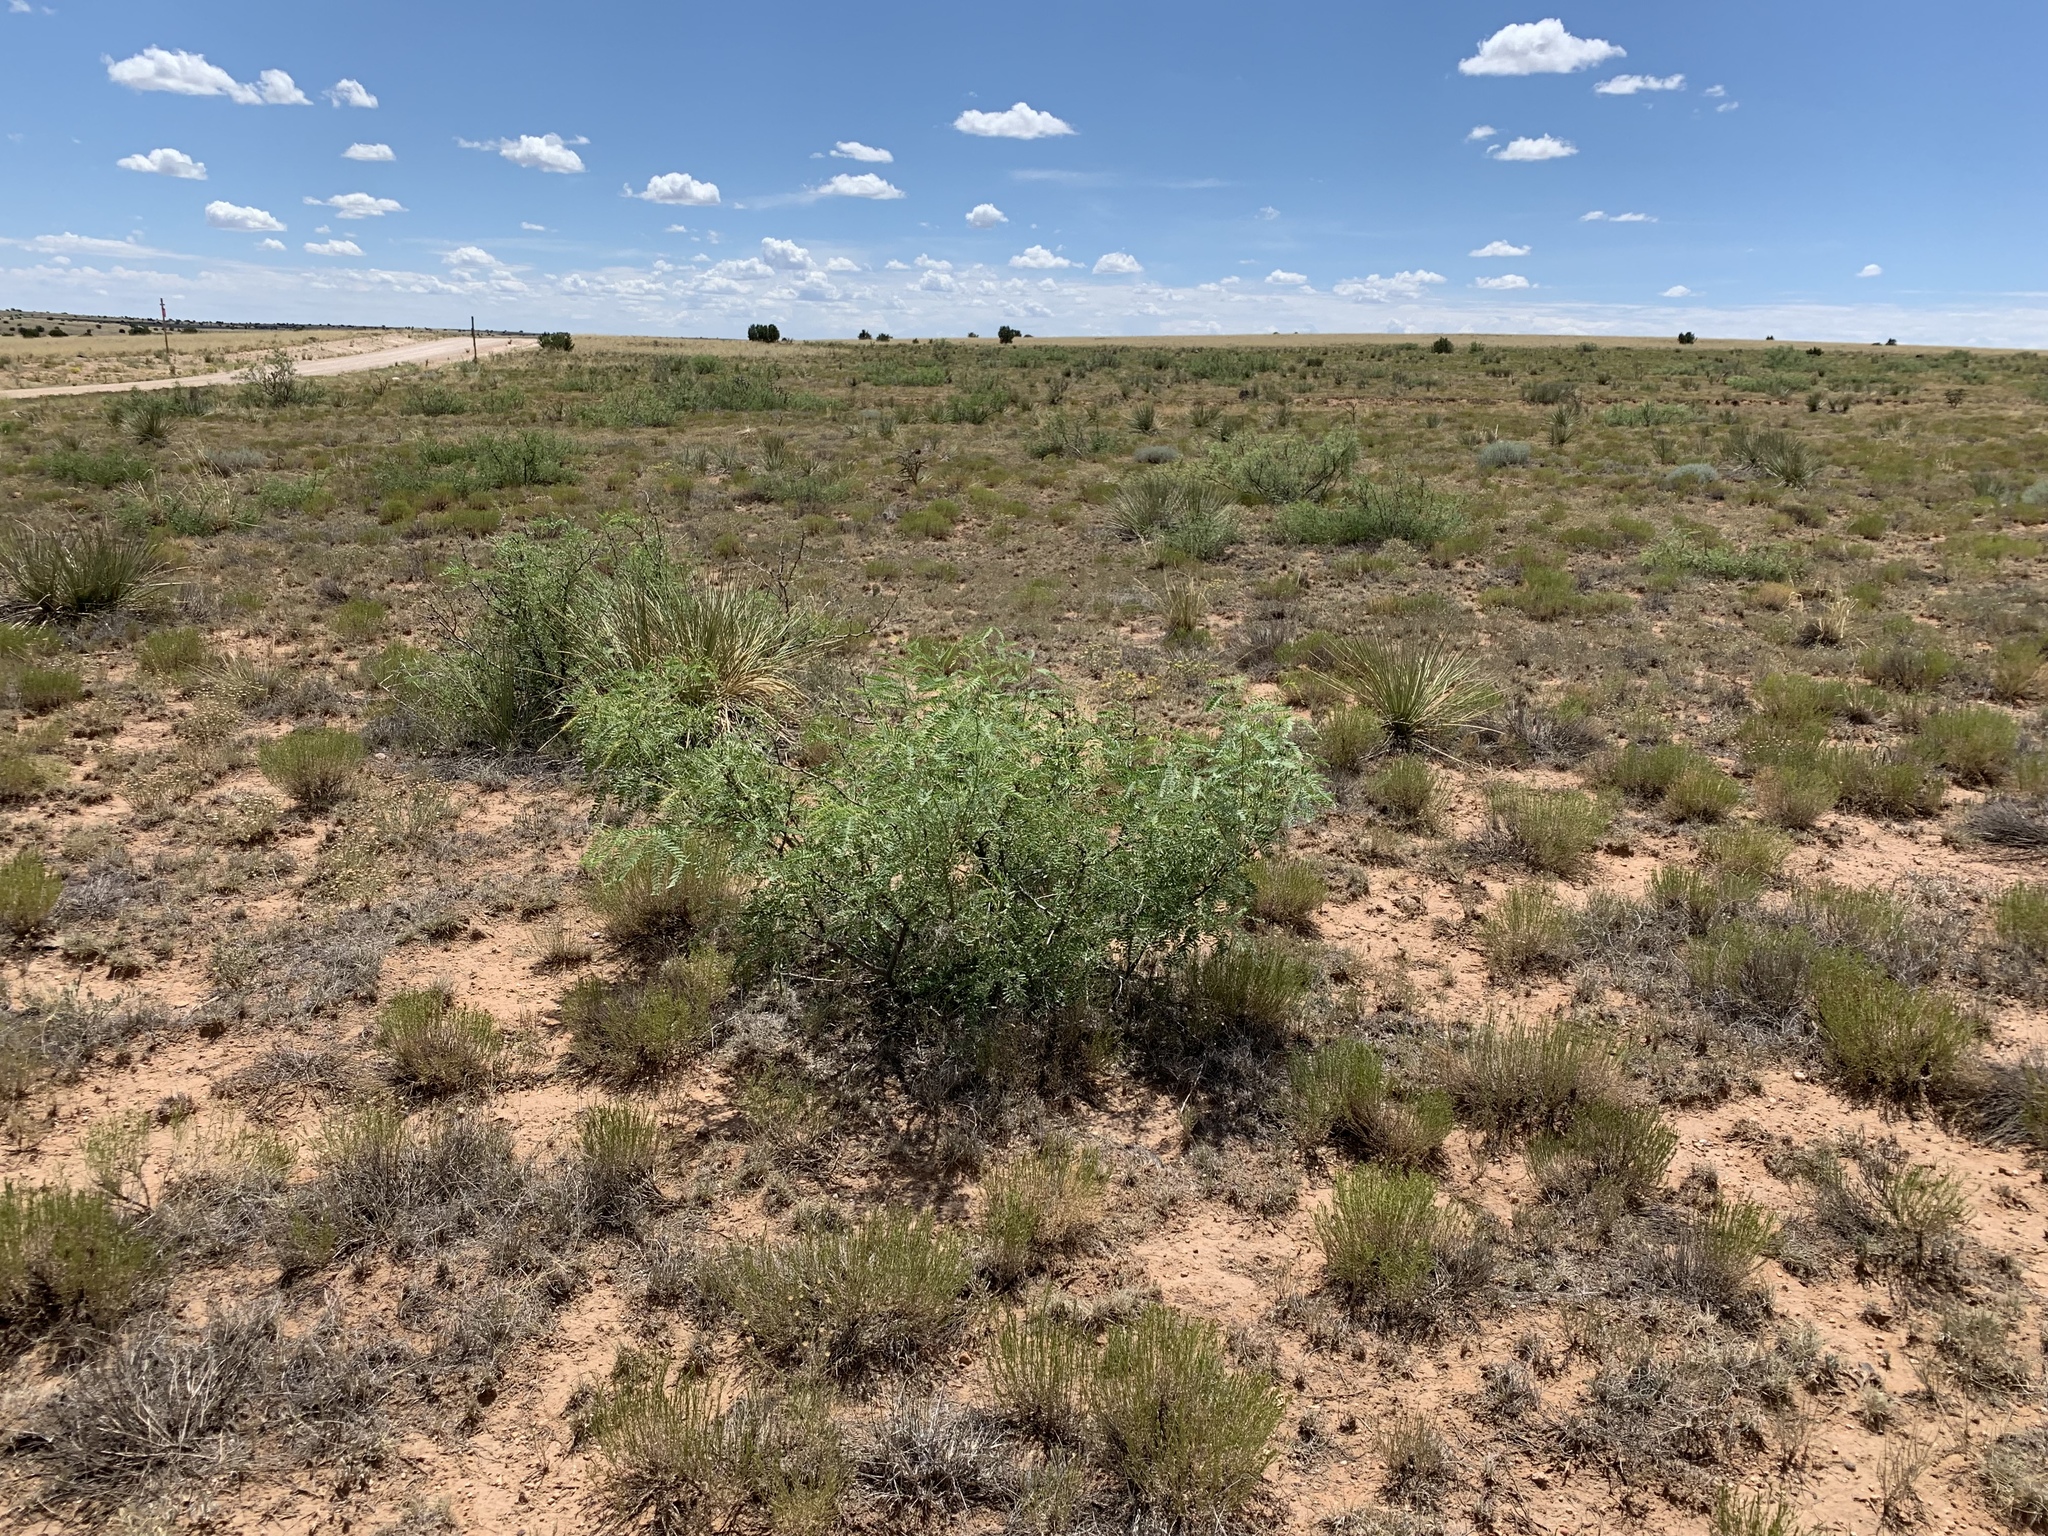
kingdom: Plantae
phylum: Tracheophyta
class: Magnoliopsida
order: Fabales
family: Fabaceae
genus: Prosopis
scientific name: Prosopis glandulosa
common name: Honey mesquite
